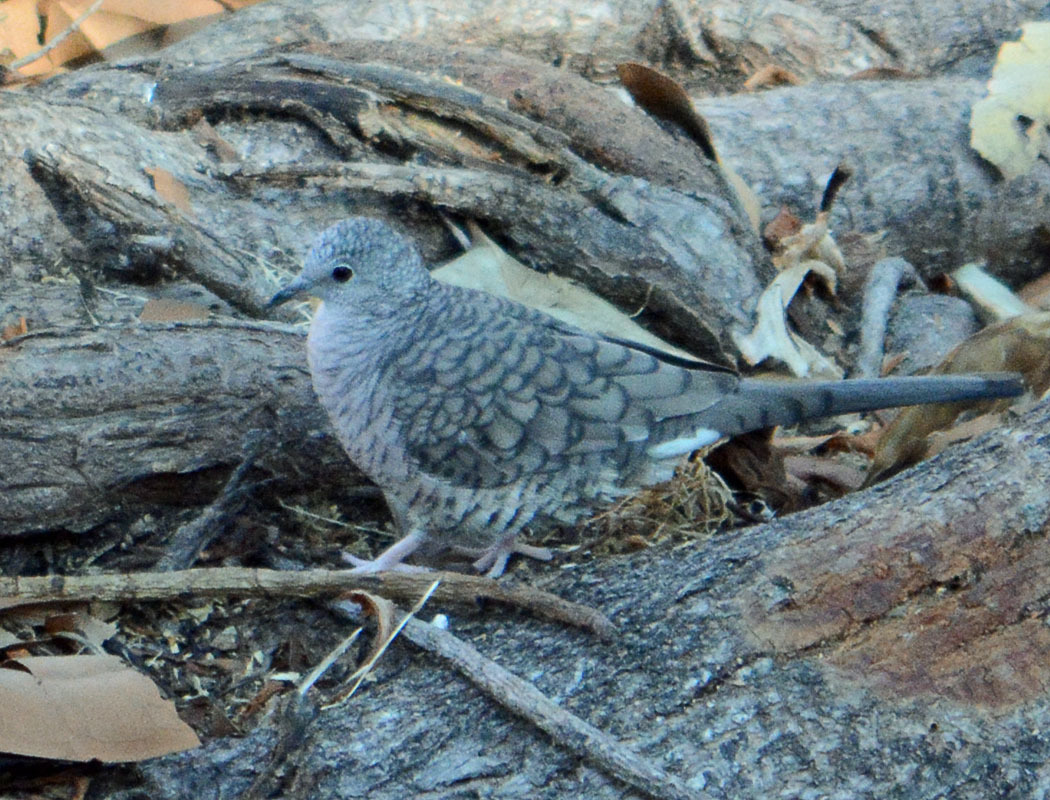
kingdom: Animalia
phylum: Chordata
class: Aves
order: Columbiformes
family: Columbidae
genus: Columbina
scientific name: Columbina inca
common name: Inca dove
